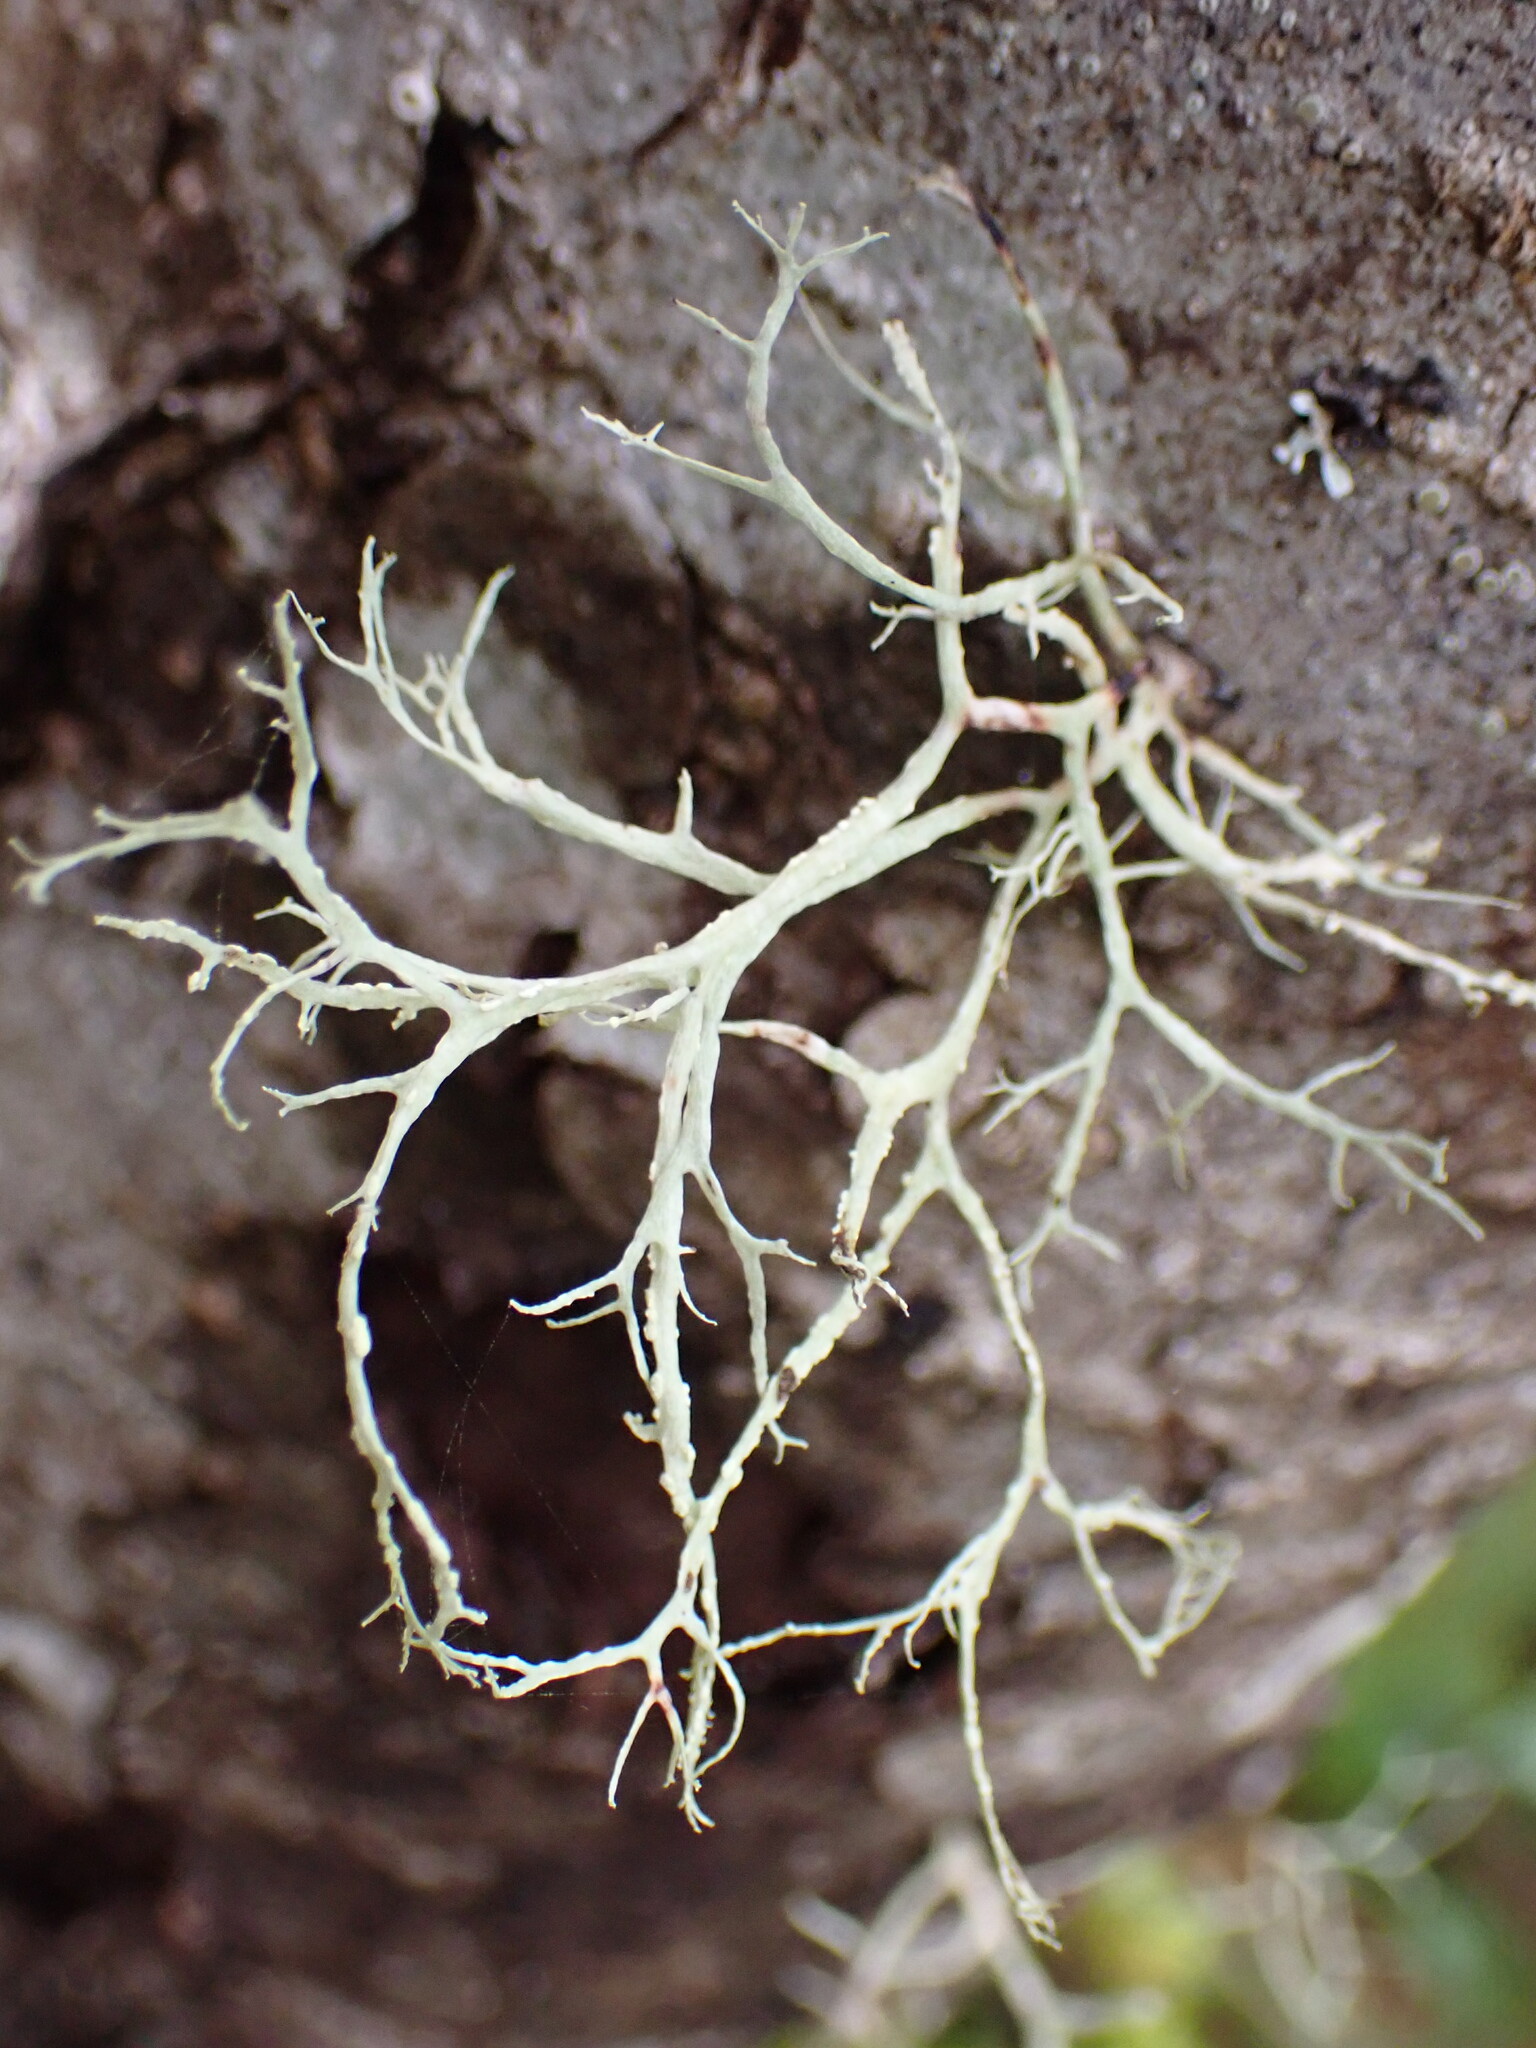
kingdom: Fungi
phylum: Ascomycota
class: Lecanoromycetes
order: Lecanorales
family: Ramalinaceae
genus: Ramalina
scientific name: Ramalina farinacea
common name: Farinose cartilage lichen
